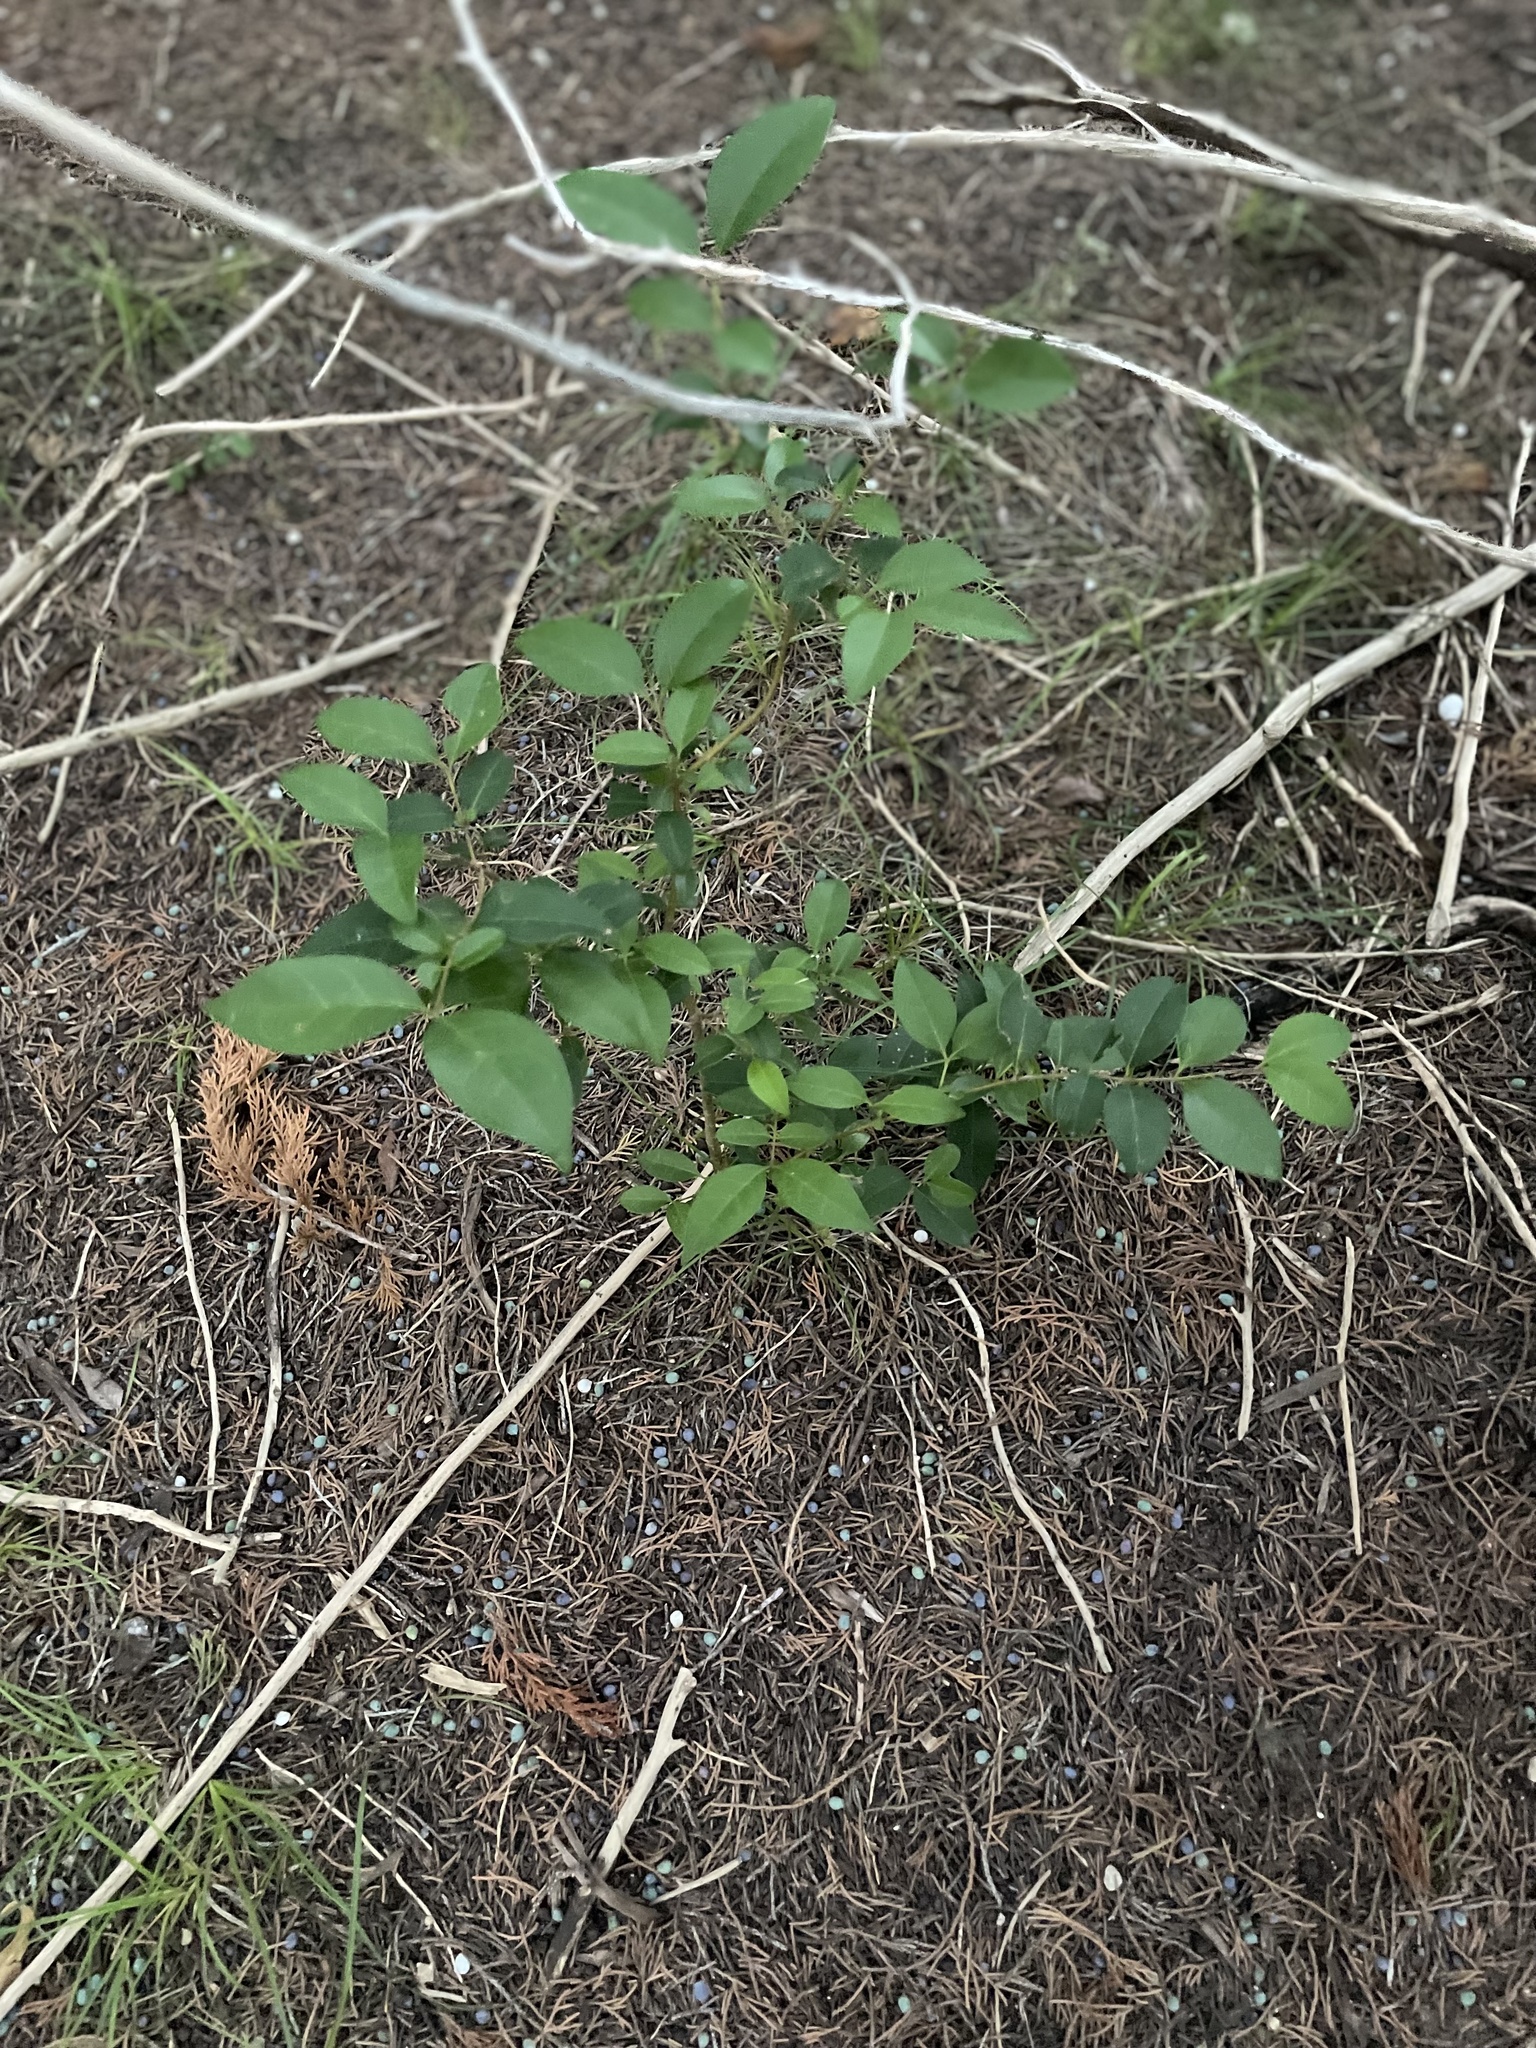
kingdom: Plantae
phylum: Tracheophyta
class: Magnoliopsida
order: Lamiales
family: Oleaceae
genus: Ligustrum
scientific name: Ligustrum lucidum
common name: Glossy privet
